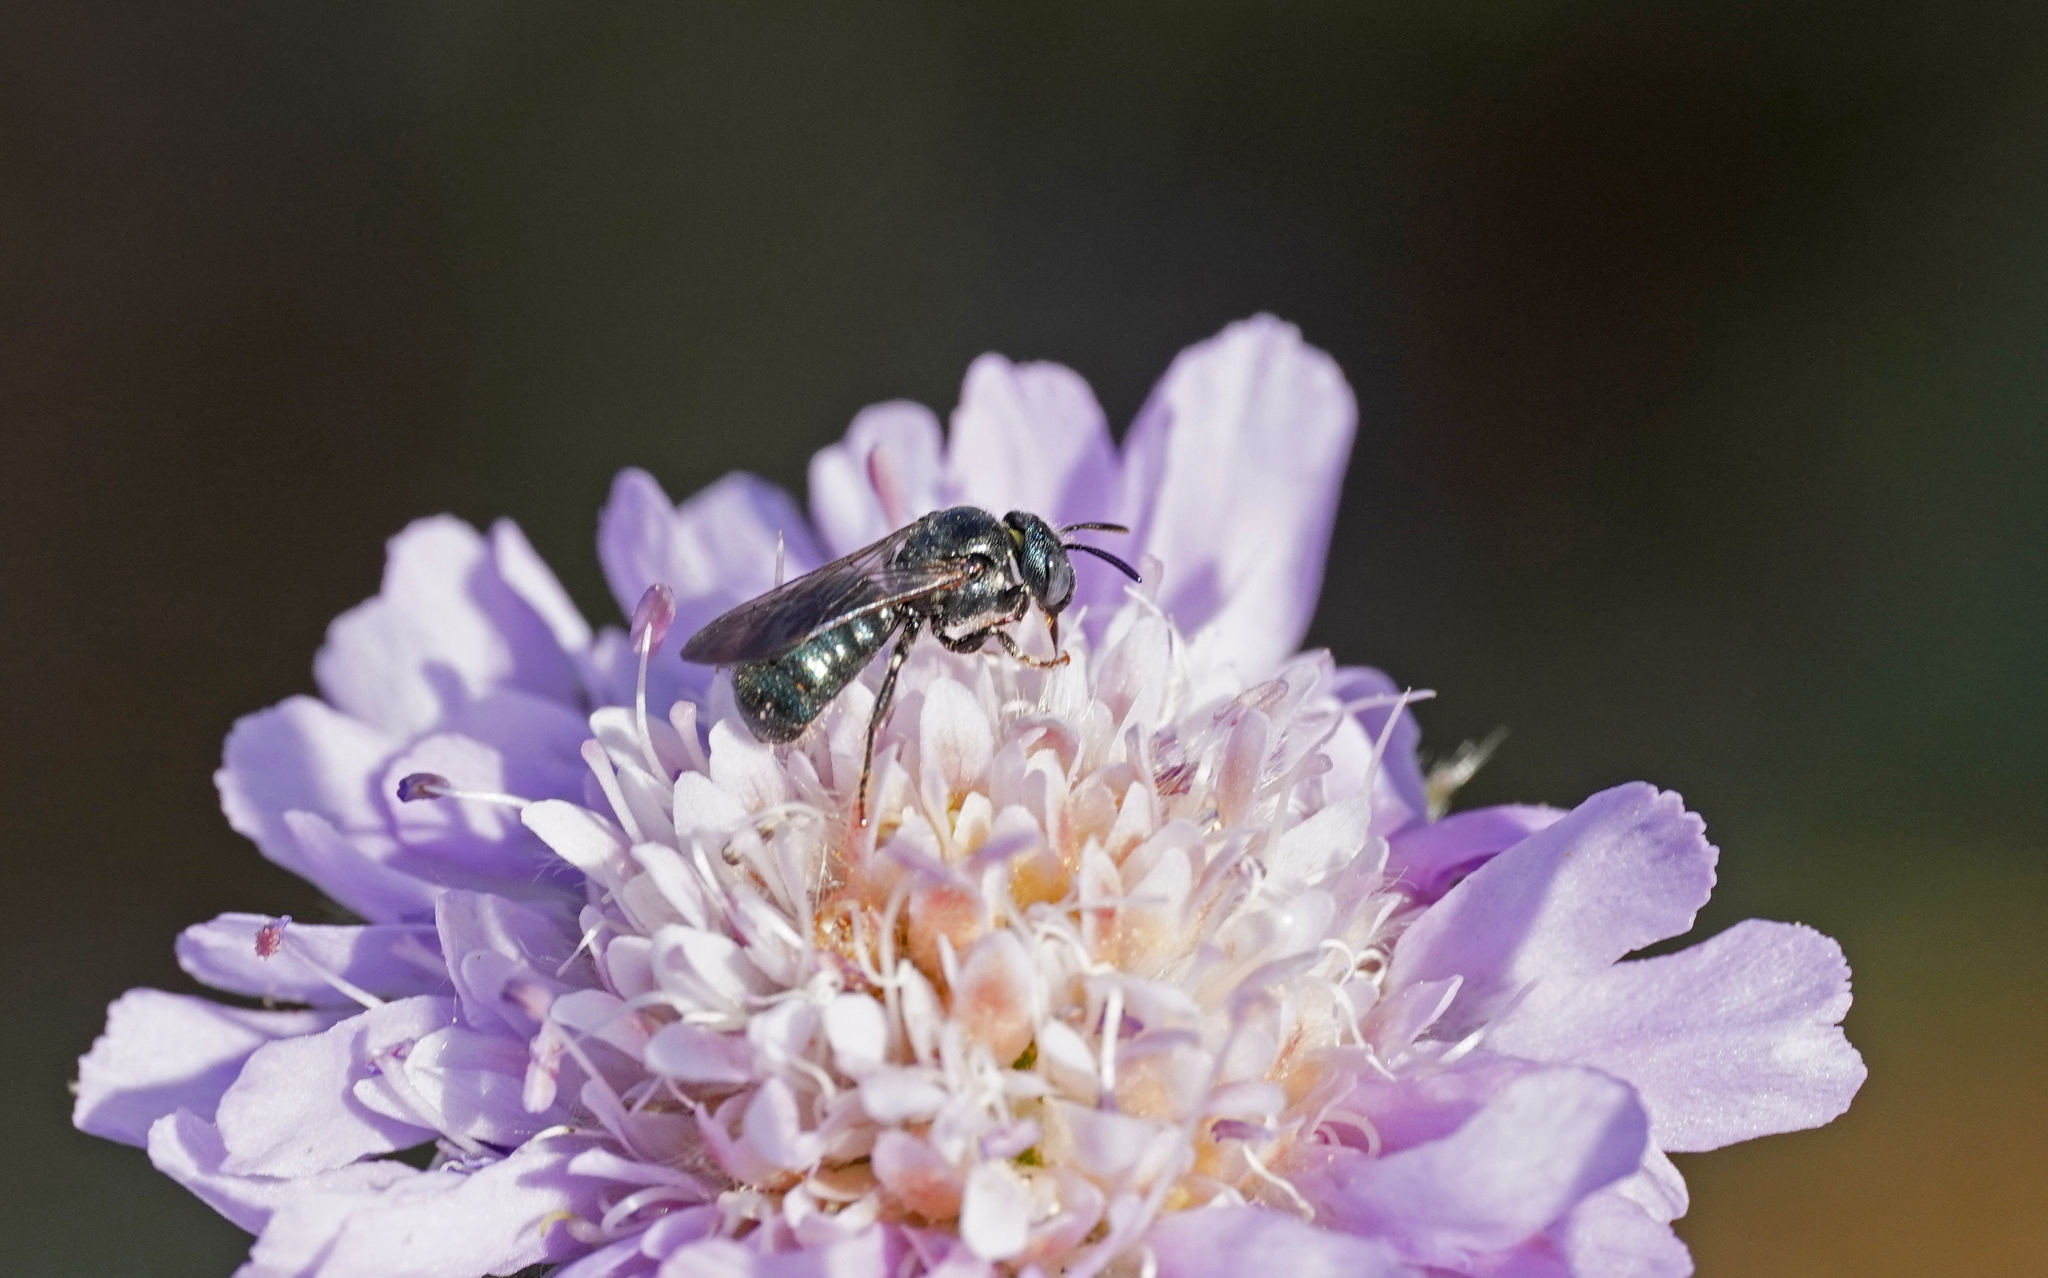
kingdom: Animalia
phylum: Arthropoda
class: Insecta
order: Hymenoptera
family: Apidae
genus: Ceratina
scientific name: Ceratina chalybea
